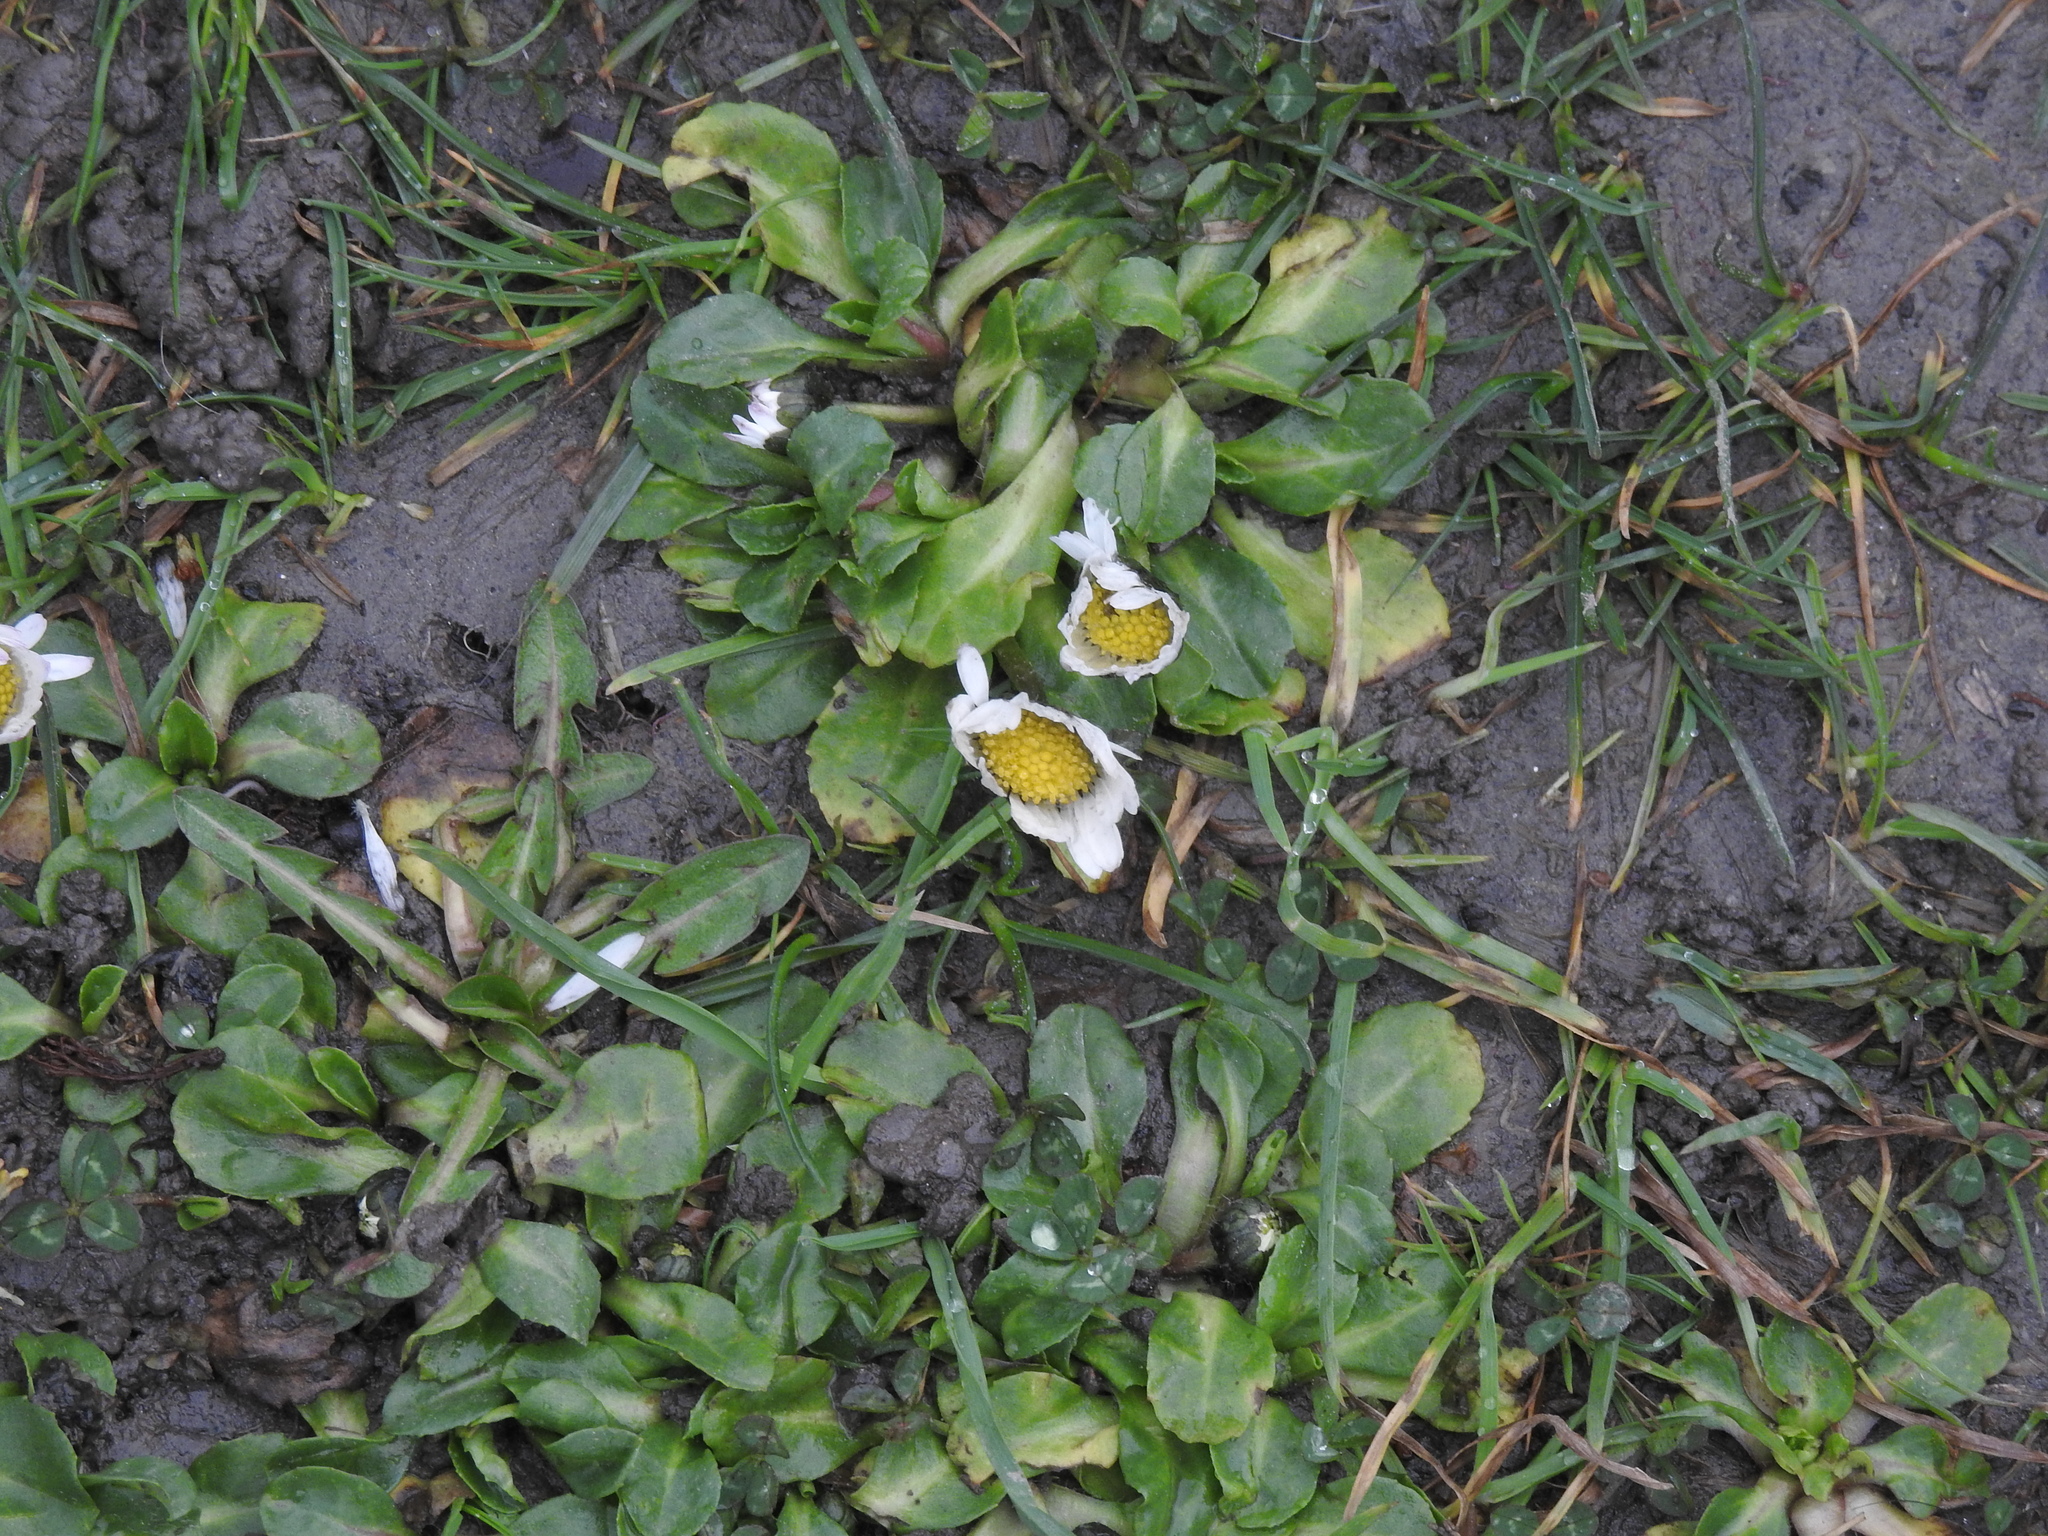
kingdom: Plantae
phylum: Tracheophyta
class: Magnoliopsida
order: Asterales
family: Asteraceae
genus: Bellis
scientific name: Bellis perennis
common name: Lawndaisy
